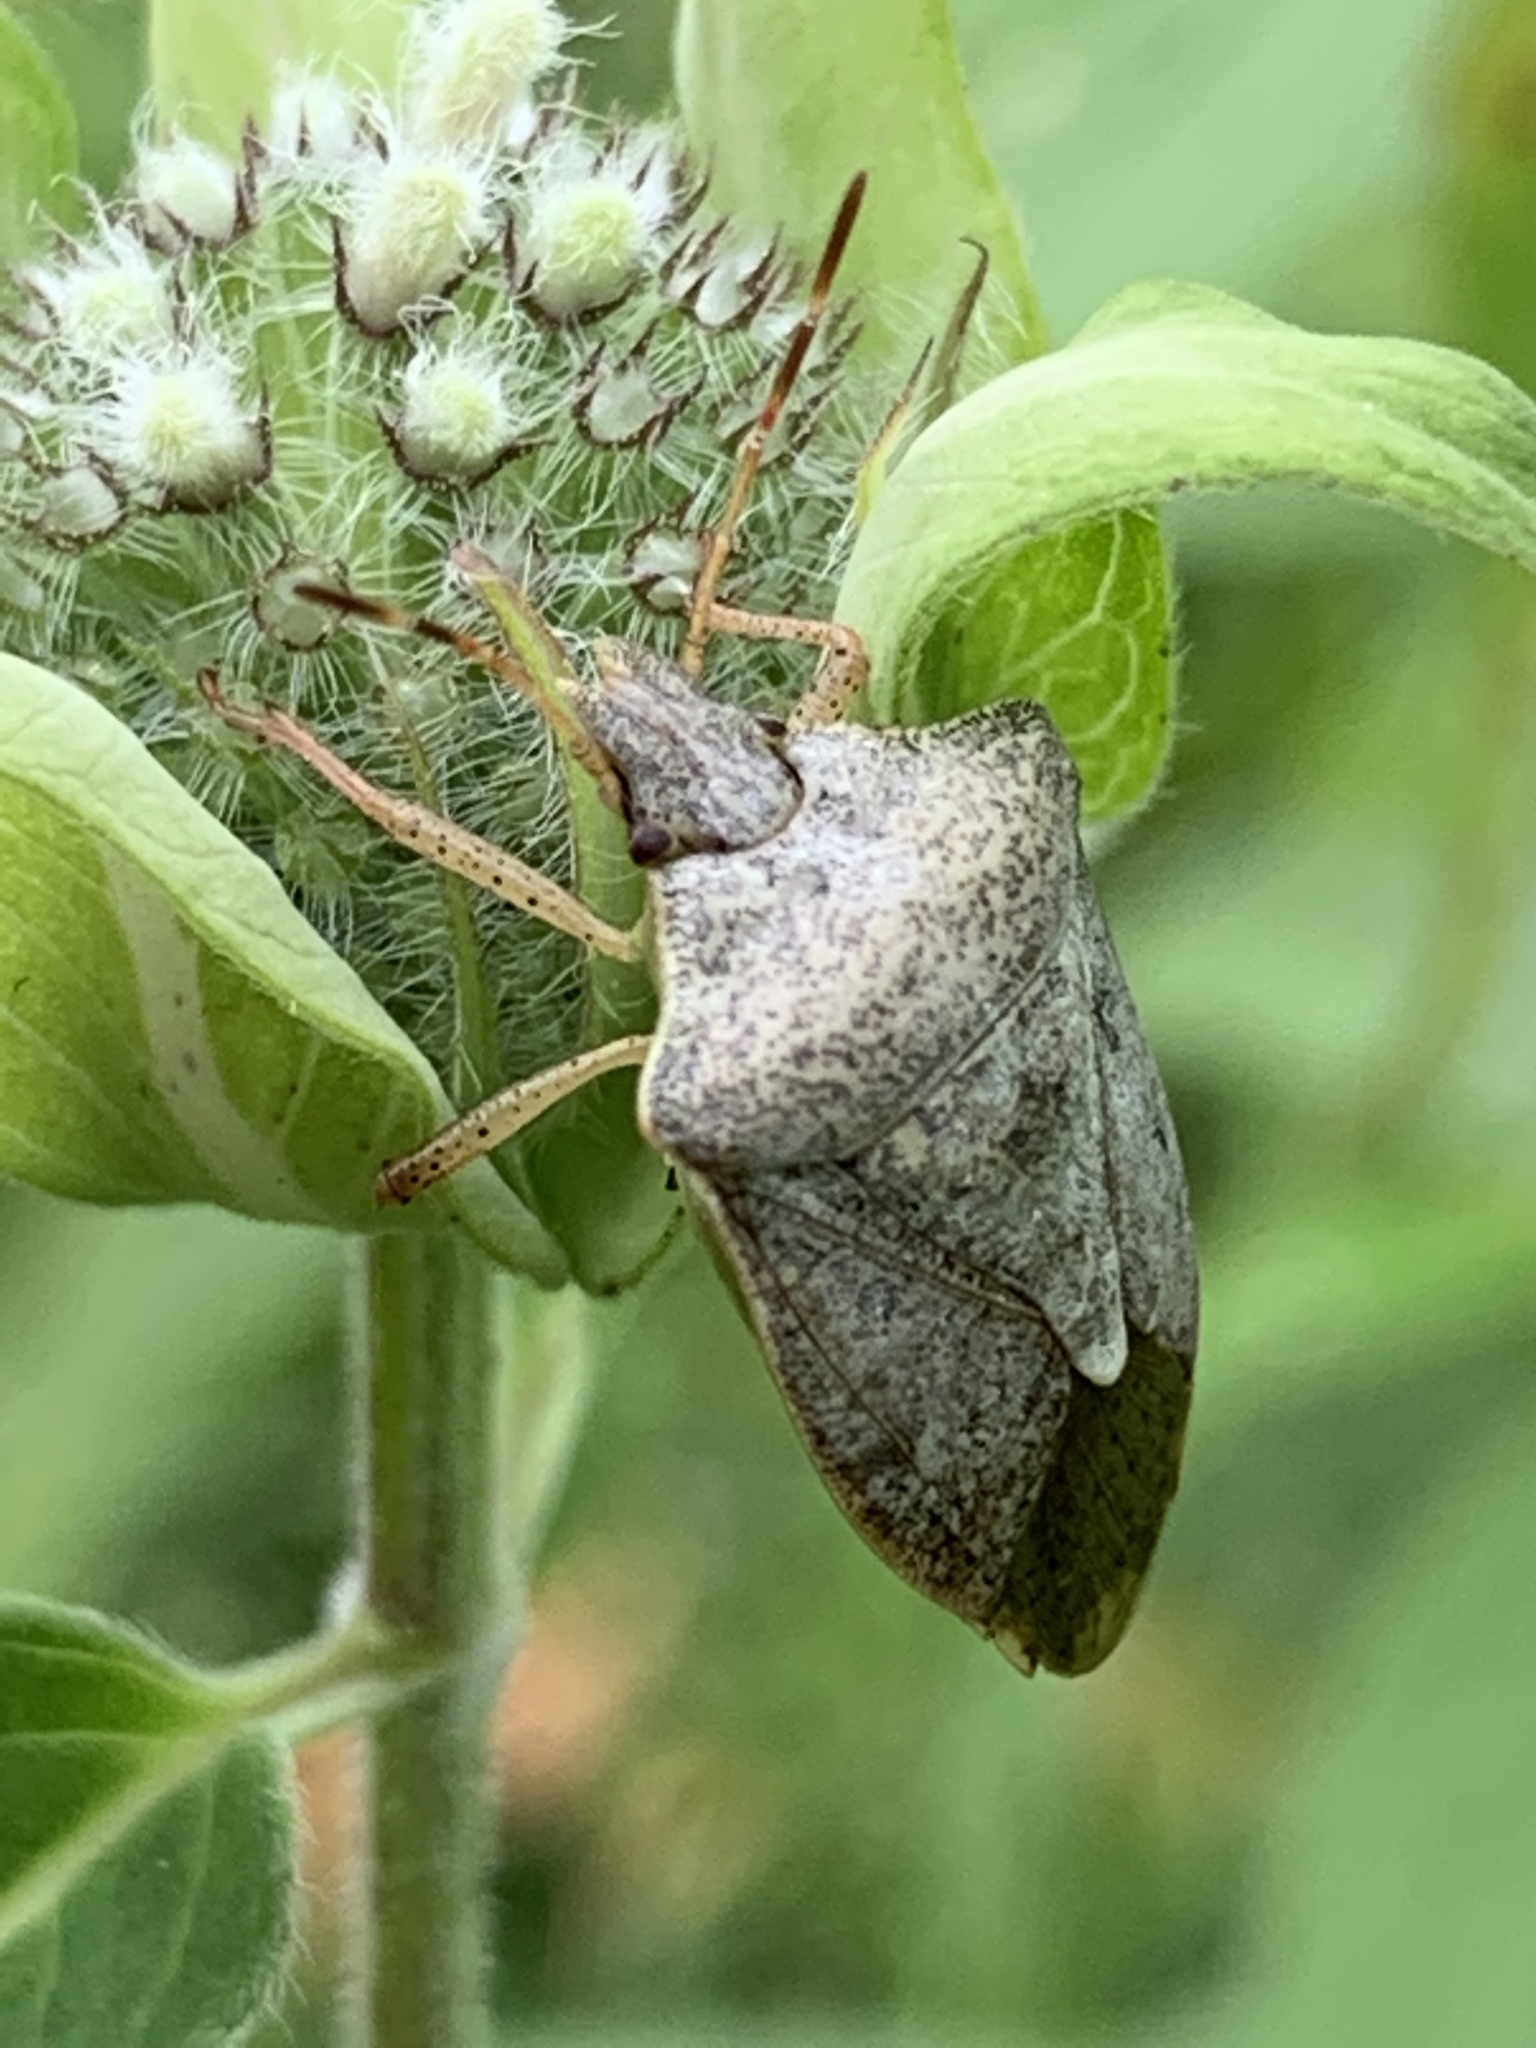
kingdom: Animalia
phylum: Arthropoda
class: Insecta
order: Hemiptera
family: Pentatomidae
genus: Euschistus
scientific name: Euschistus tristigmus
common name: Dusky stink bug
